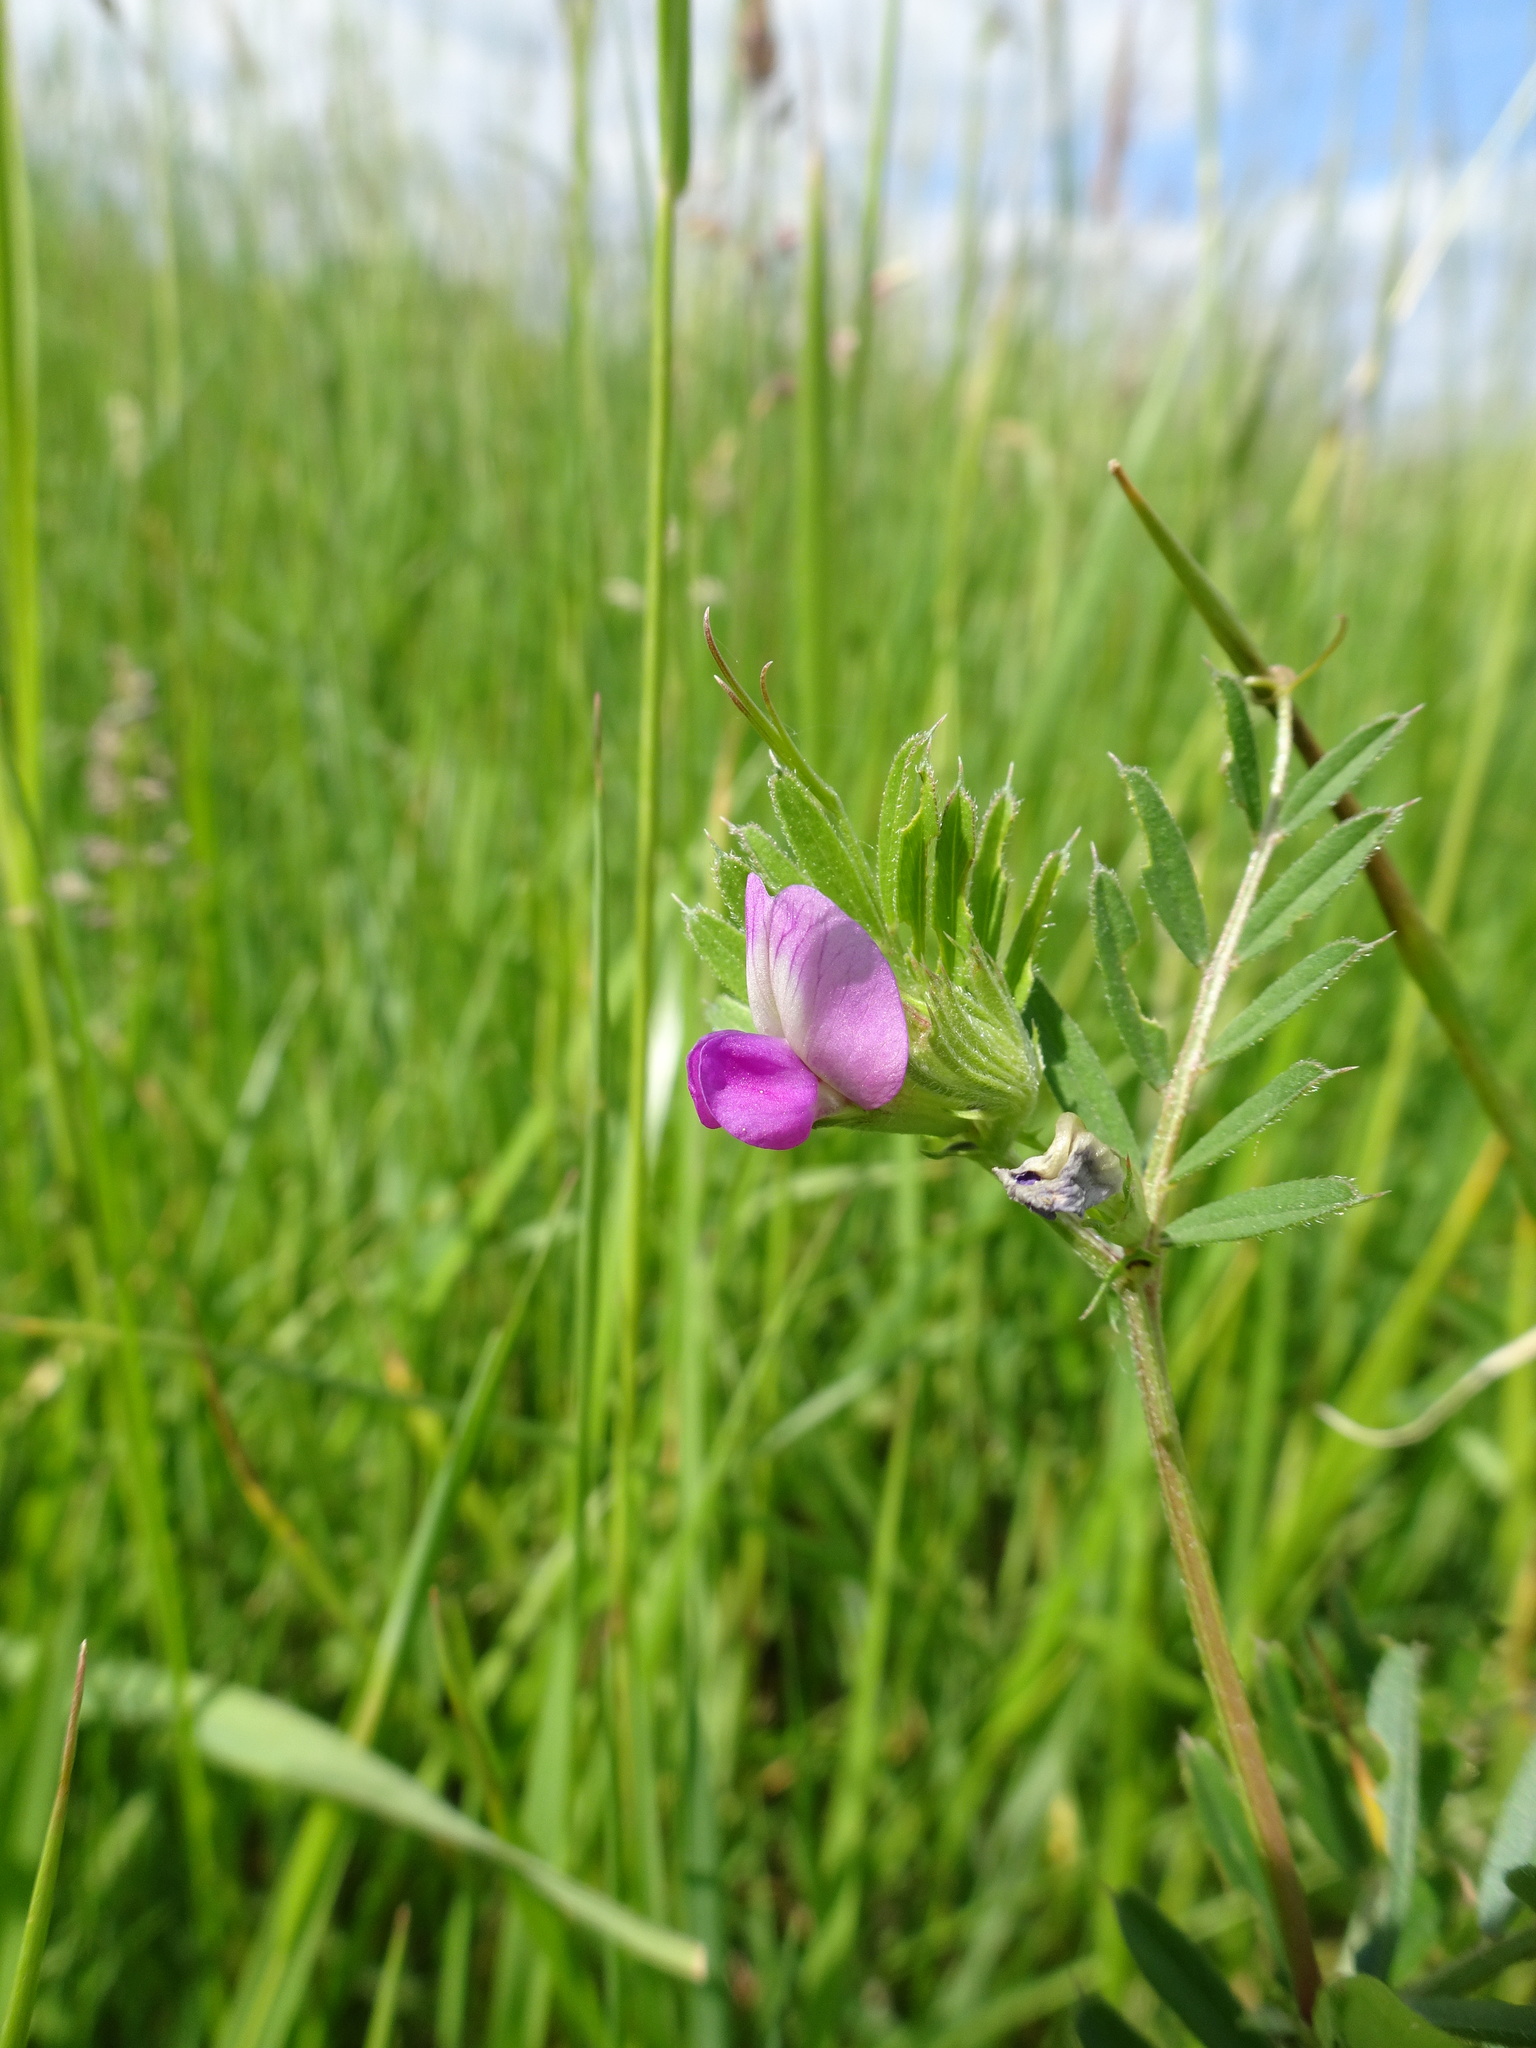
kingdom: Plantae
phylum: Tracheophyta
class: Magnoliopsida
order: Fabales
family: Fabaceae
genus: Vicia
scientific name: Vicia sativa
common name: Garden vetch
